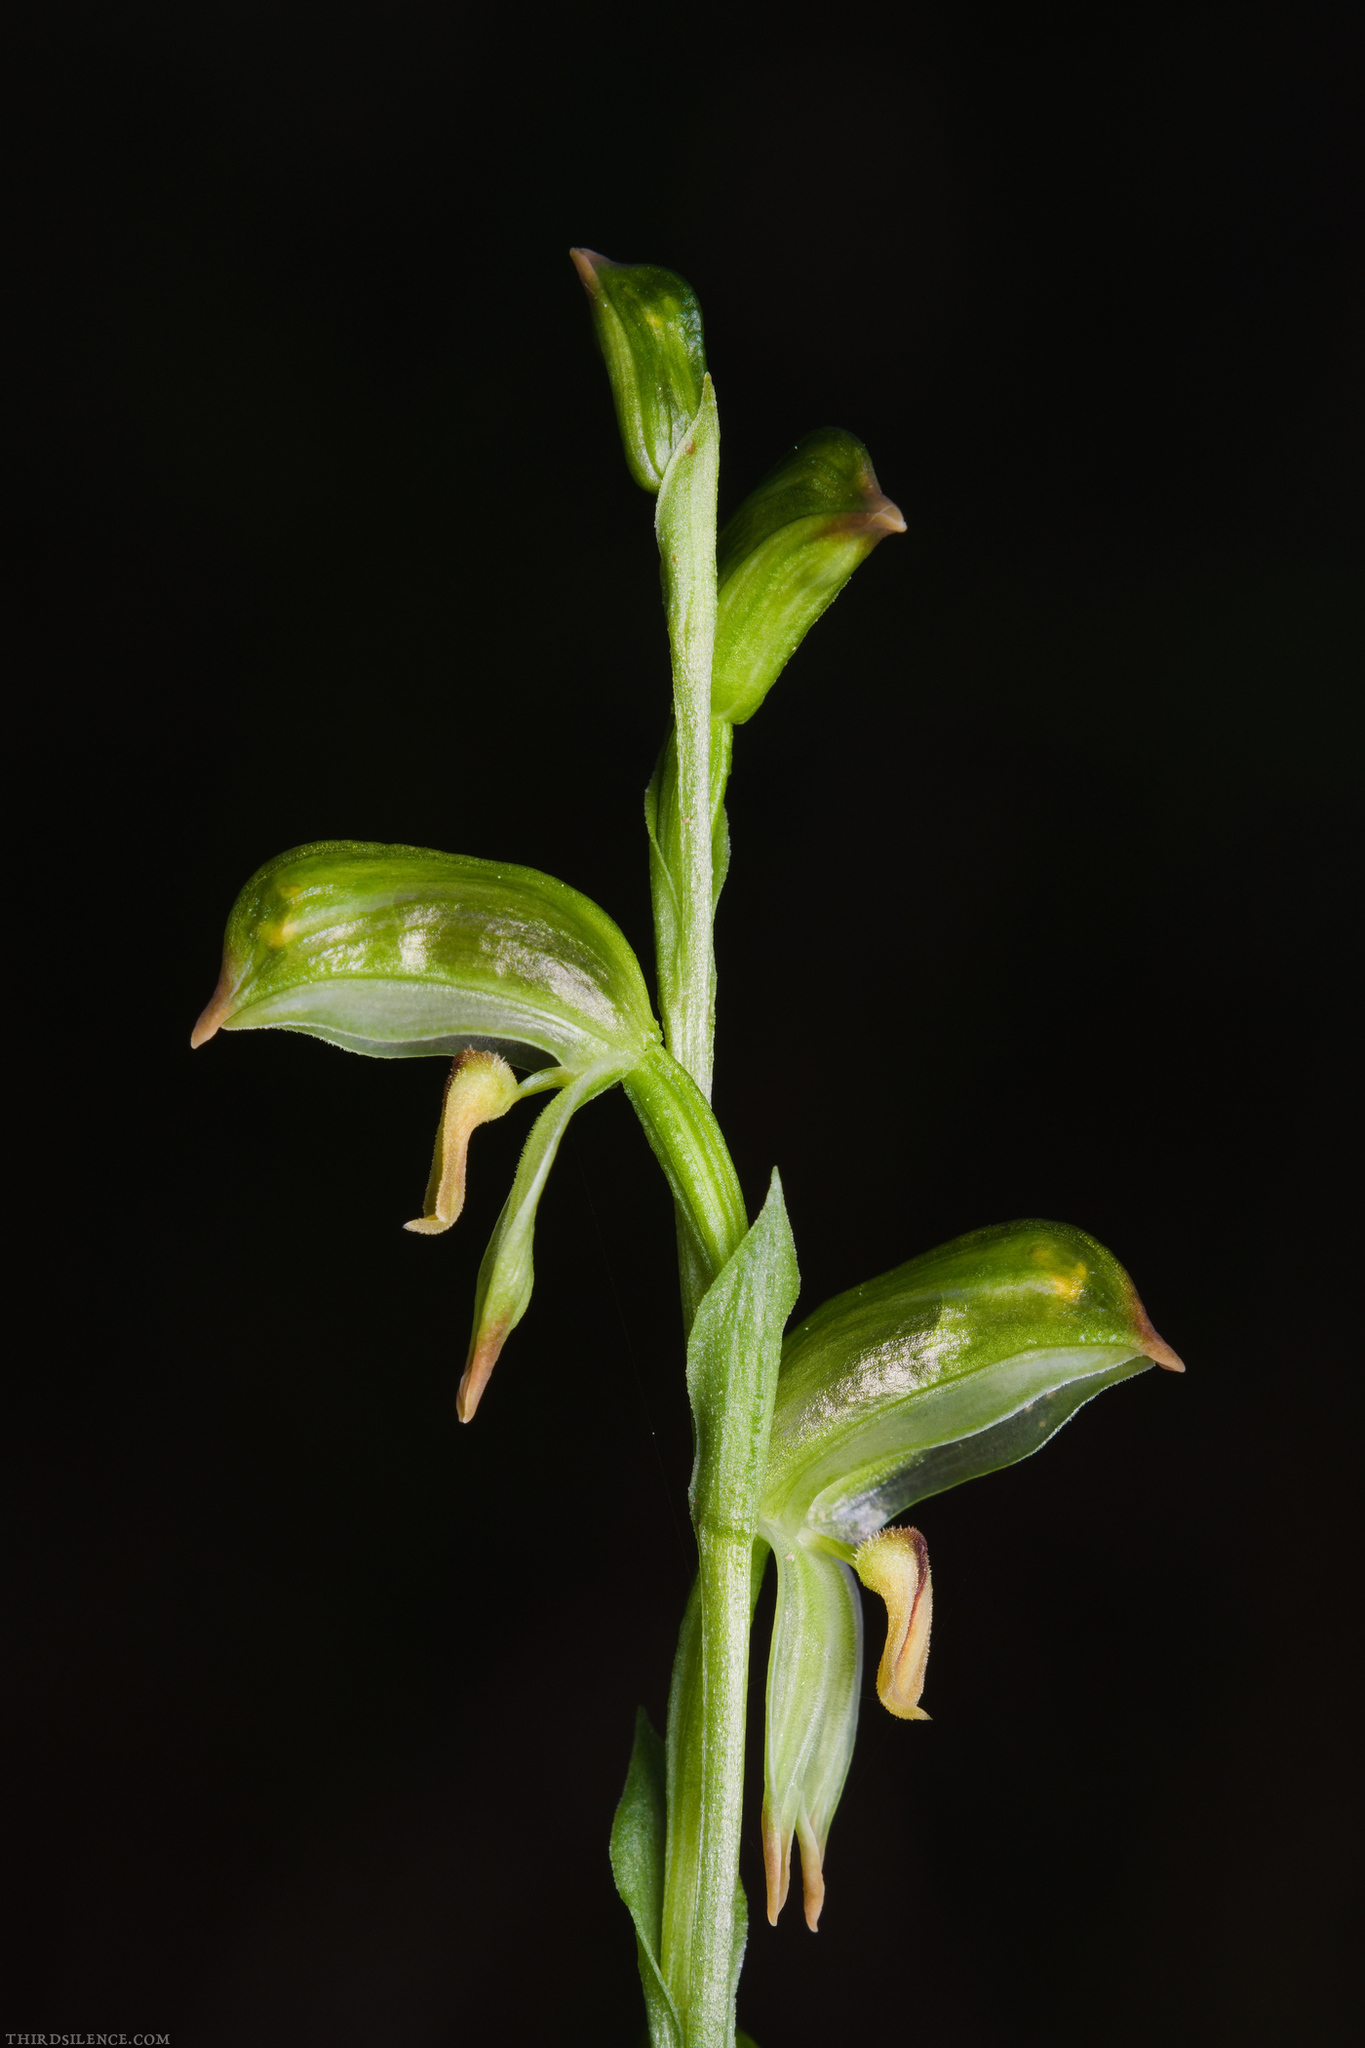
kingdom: Plantae
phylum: Tracheophyta
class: Liliopsida
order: Asparagales
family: Orchidaceae
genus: Pterostylis
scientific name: Pterostylis melagramma
